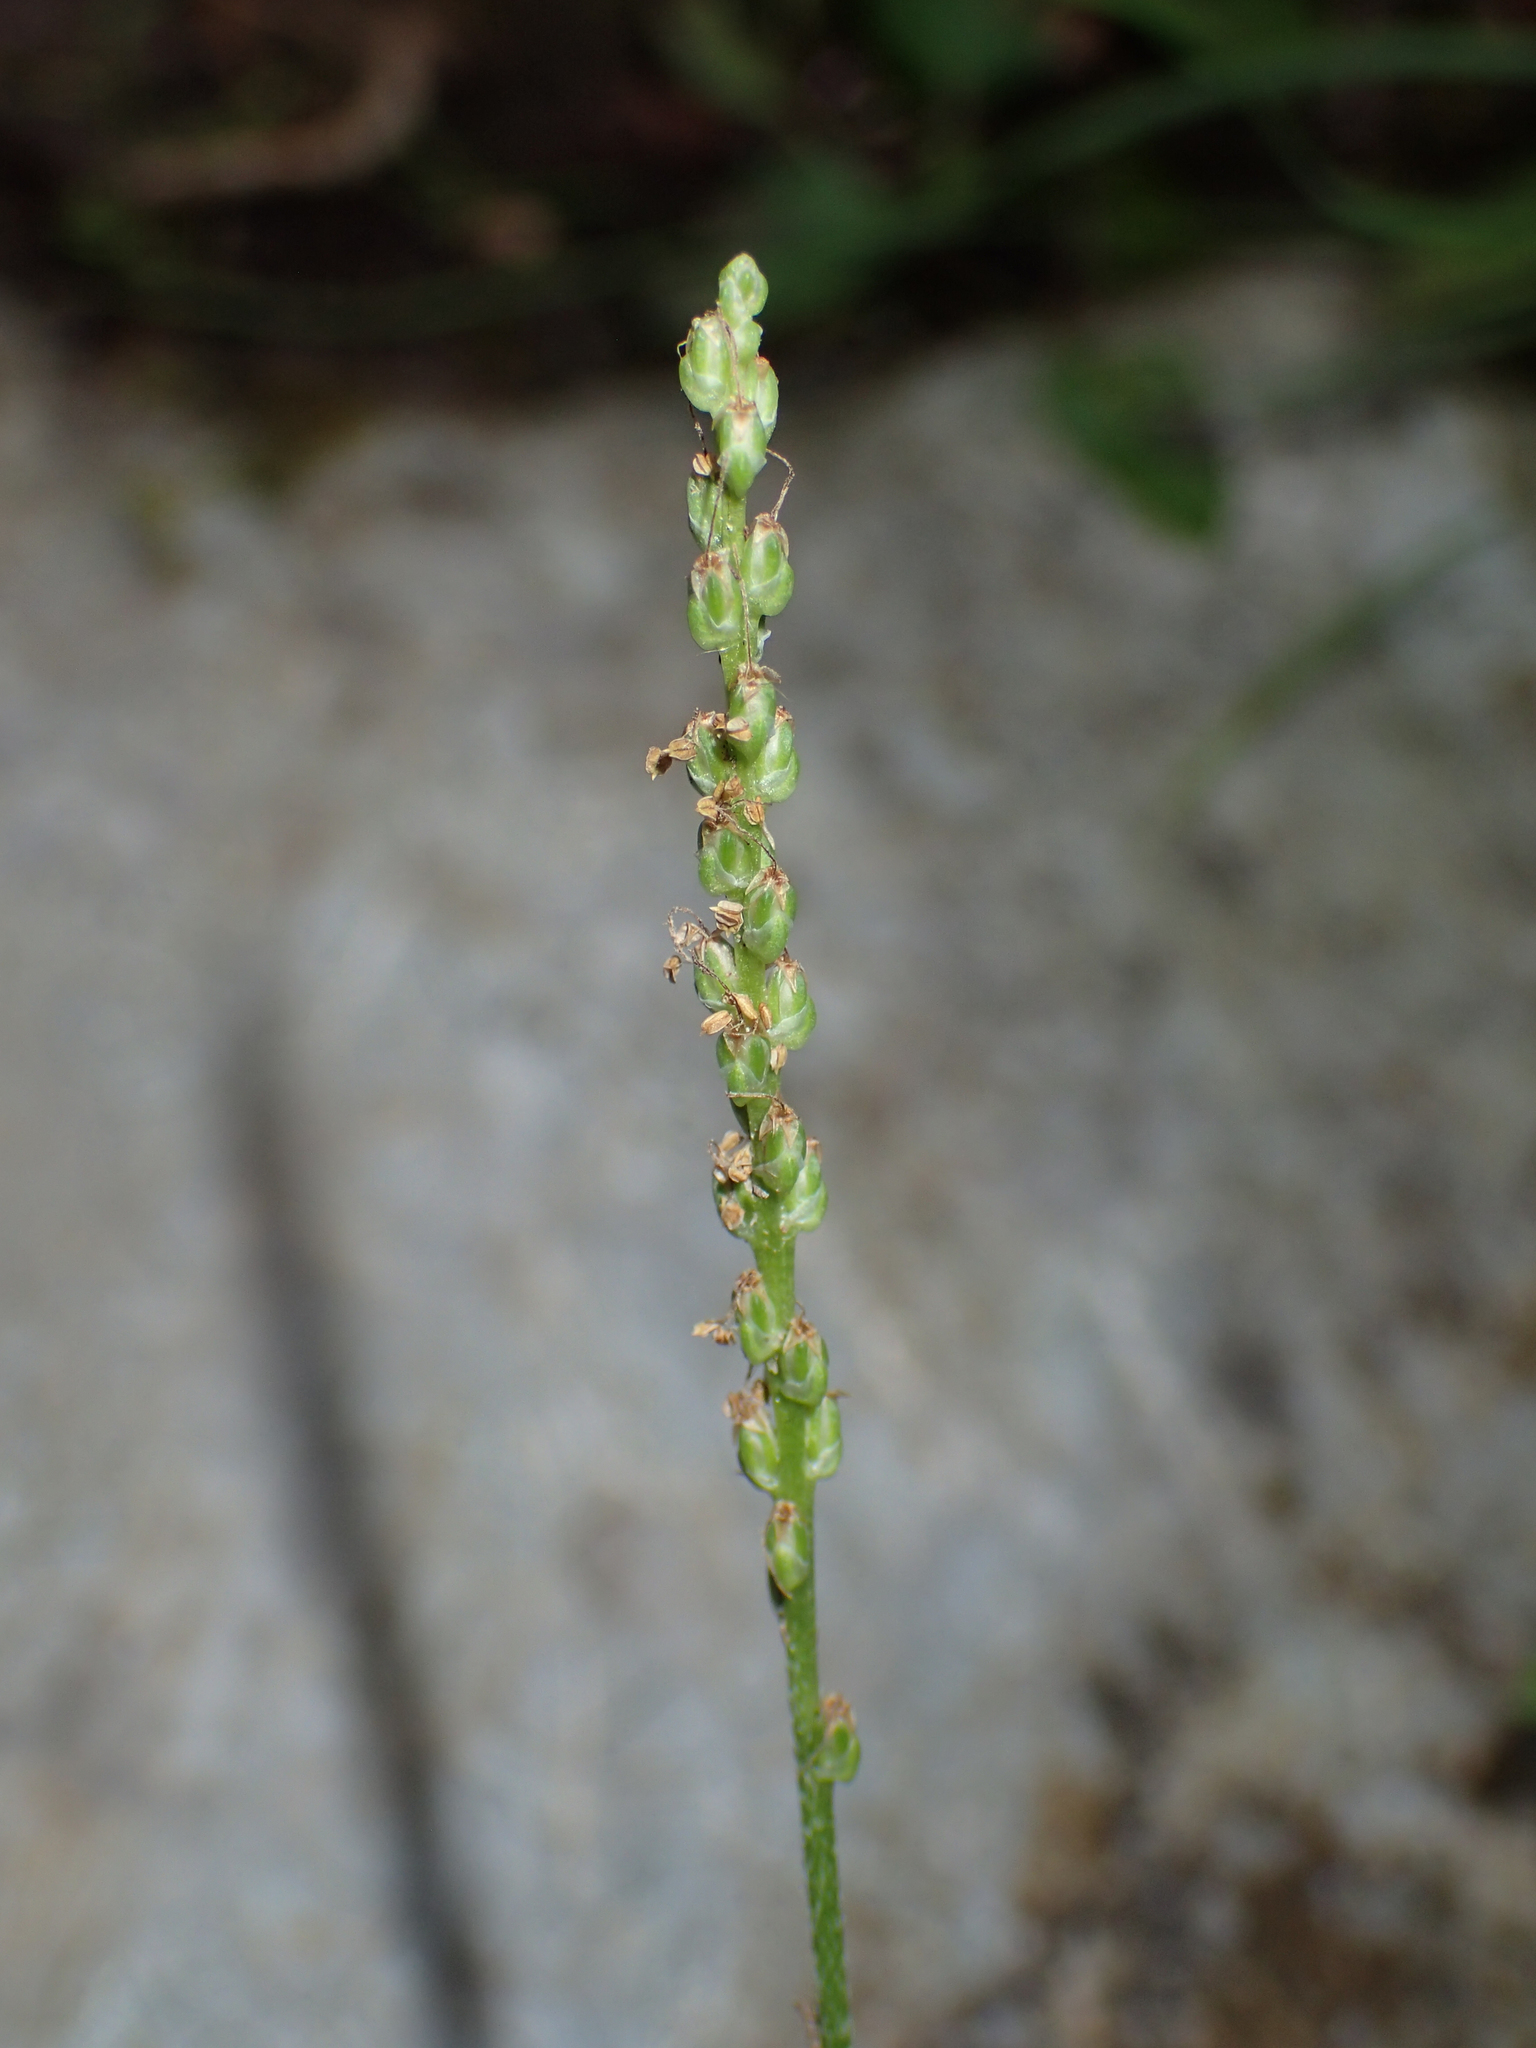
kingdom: Plantae
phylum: Tracheophyta
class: Magnoliopsida
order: Lamiales
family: Plantaginaceae
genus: Plantago
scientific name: Plantago major
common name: Common plantain
